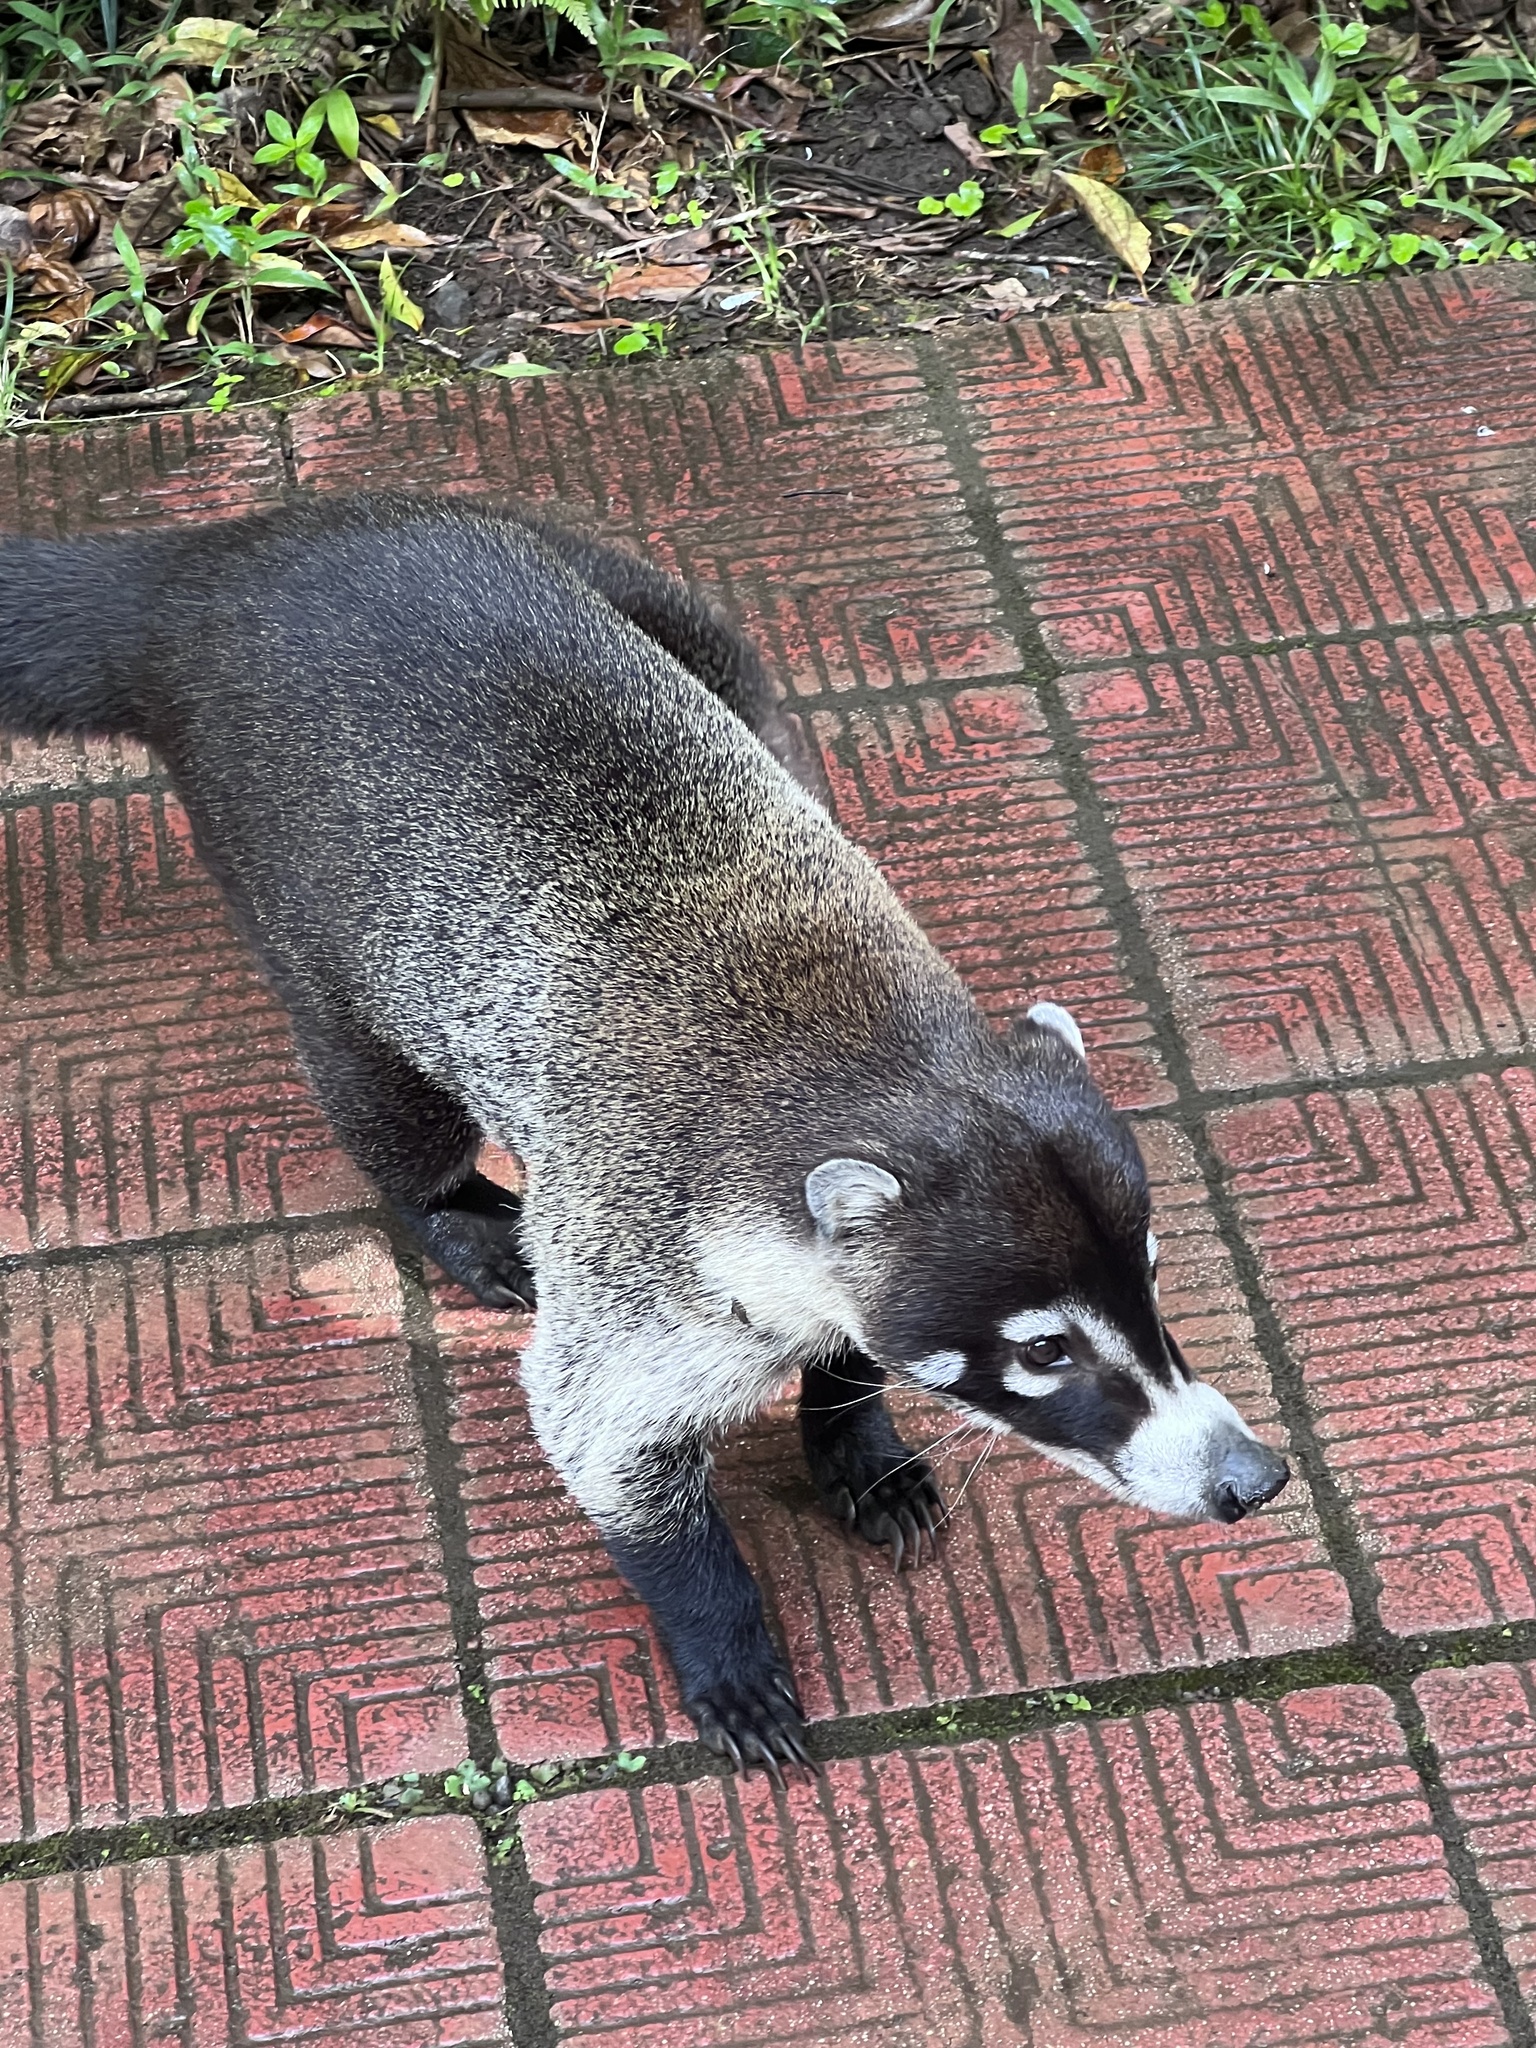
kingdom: Animalia
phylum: Chordata
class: Mammalia
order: Carnivora
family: Procyonidae
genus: Nasua
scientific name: Nasua narica
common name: White-nosed coati
